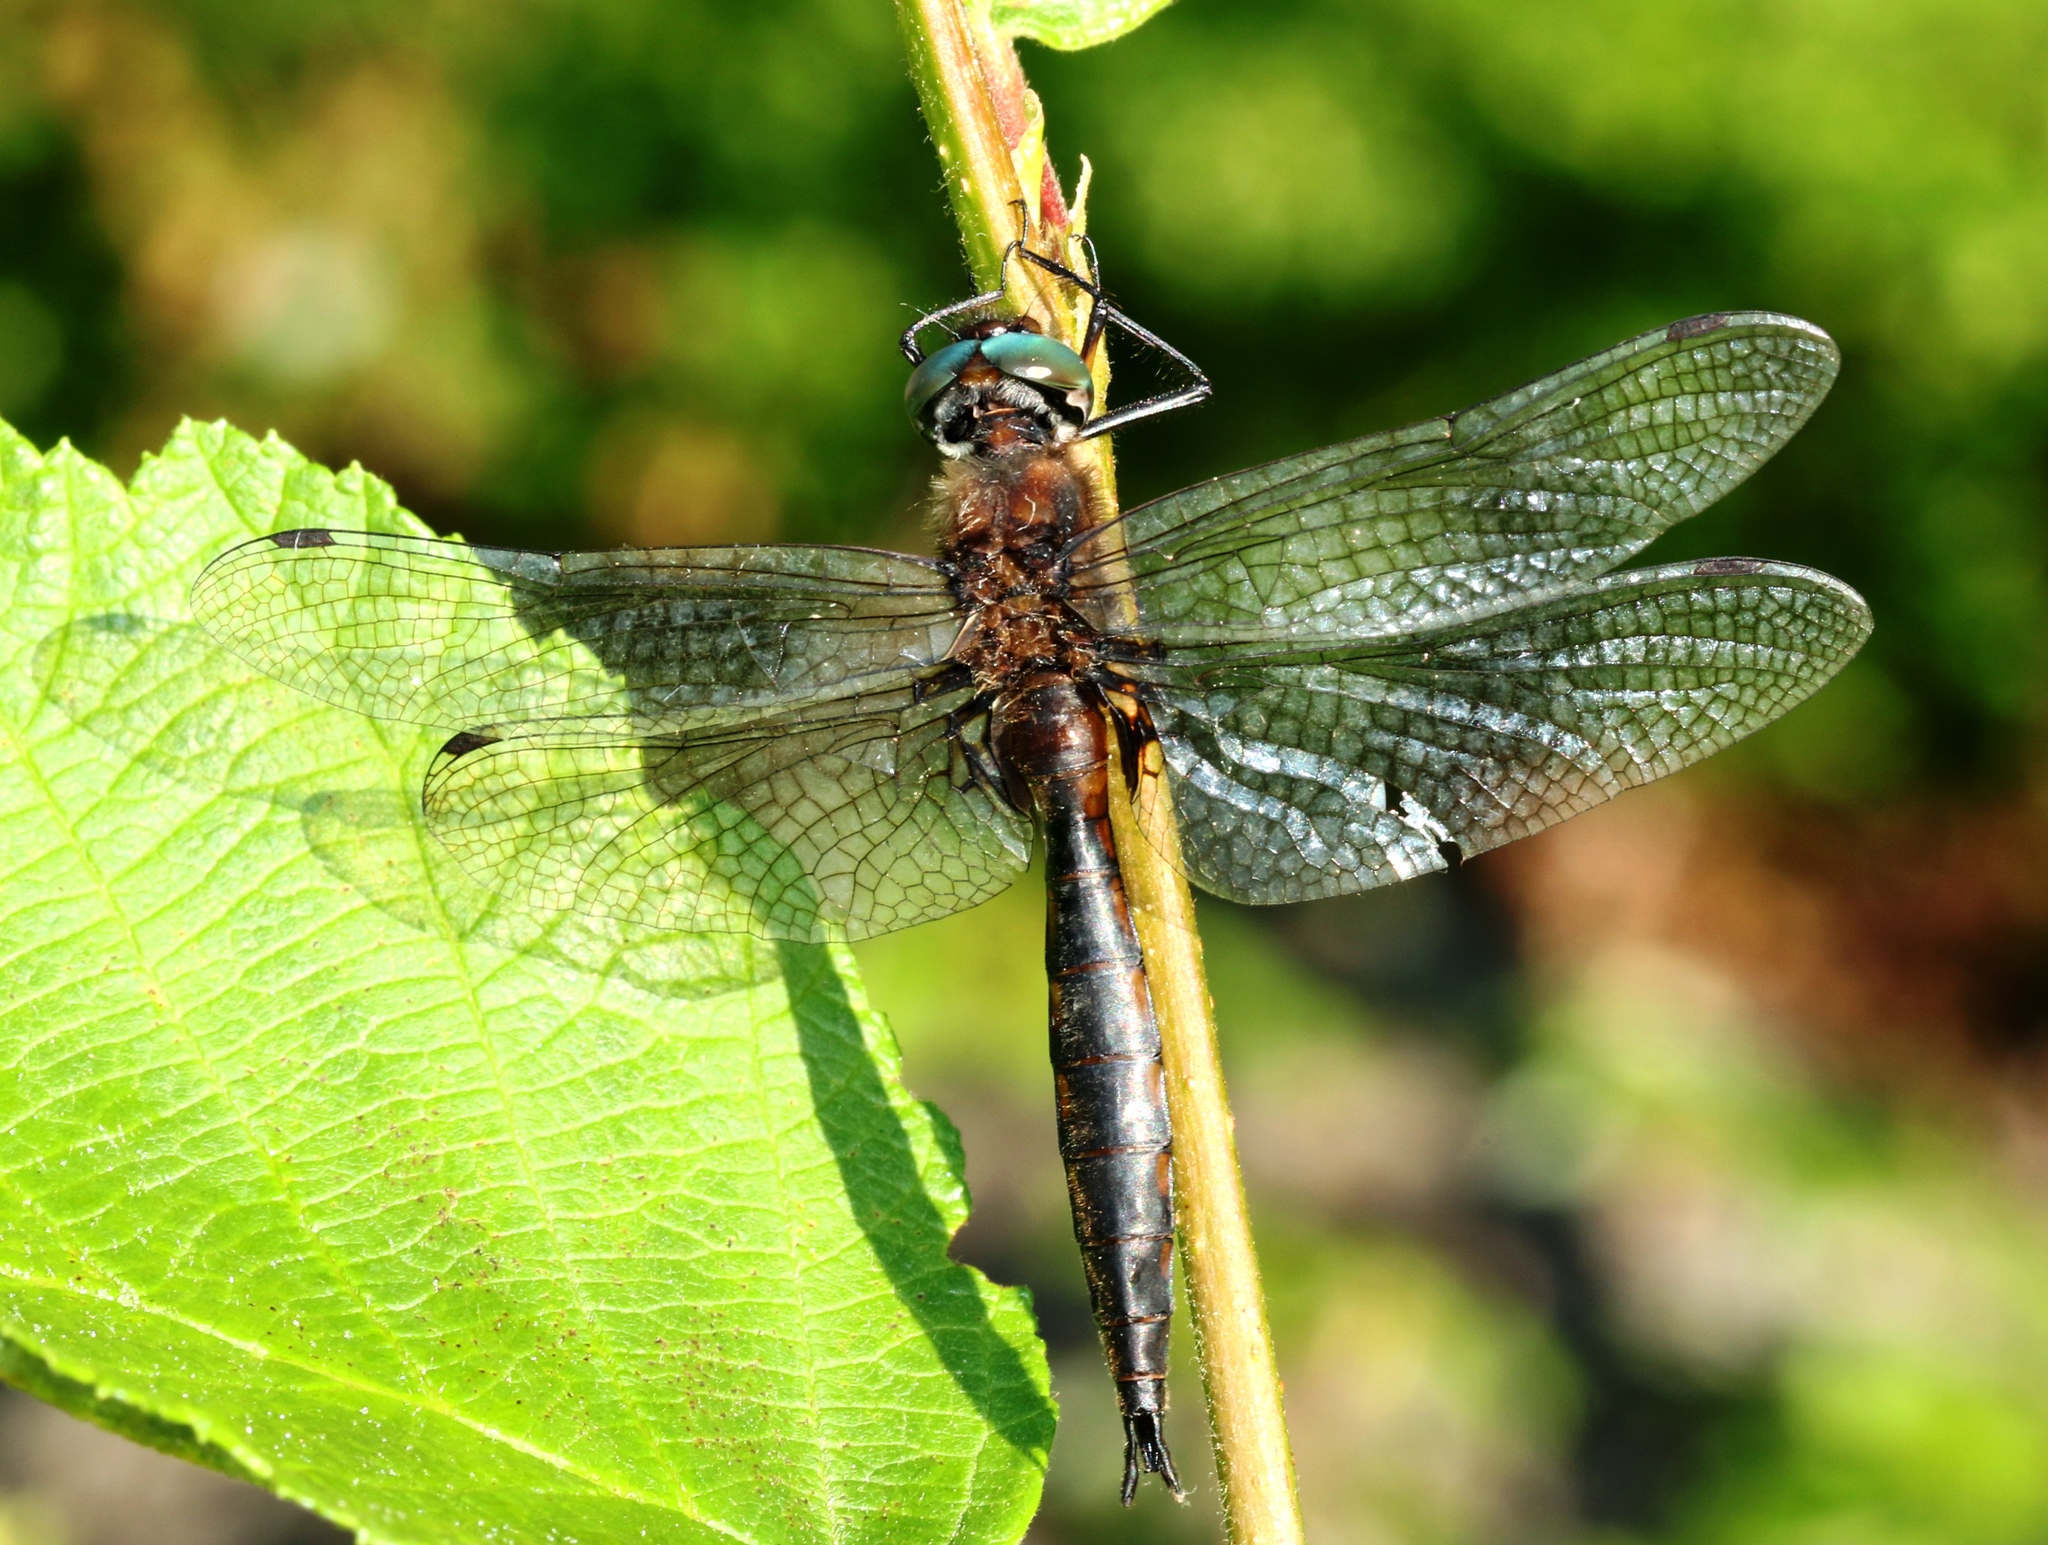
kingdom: Animalia
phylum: Arthropoda
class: Insecta
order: Odonata
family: Corduliidae
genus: Epitheca
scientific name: Epitheca spinigera
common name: Spiny baskettail
